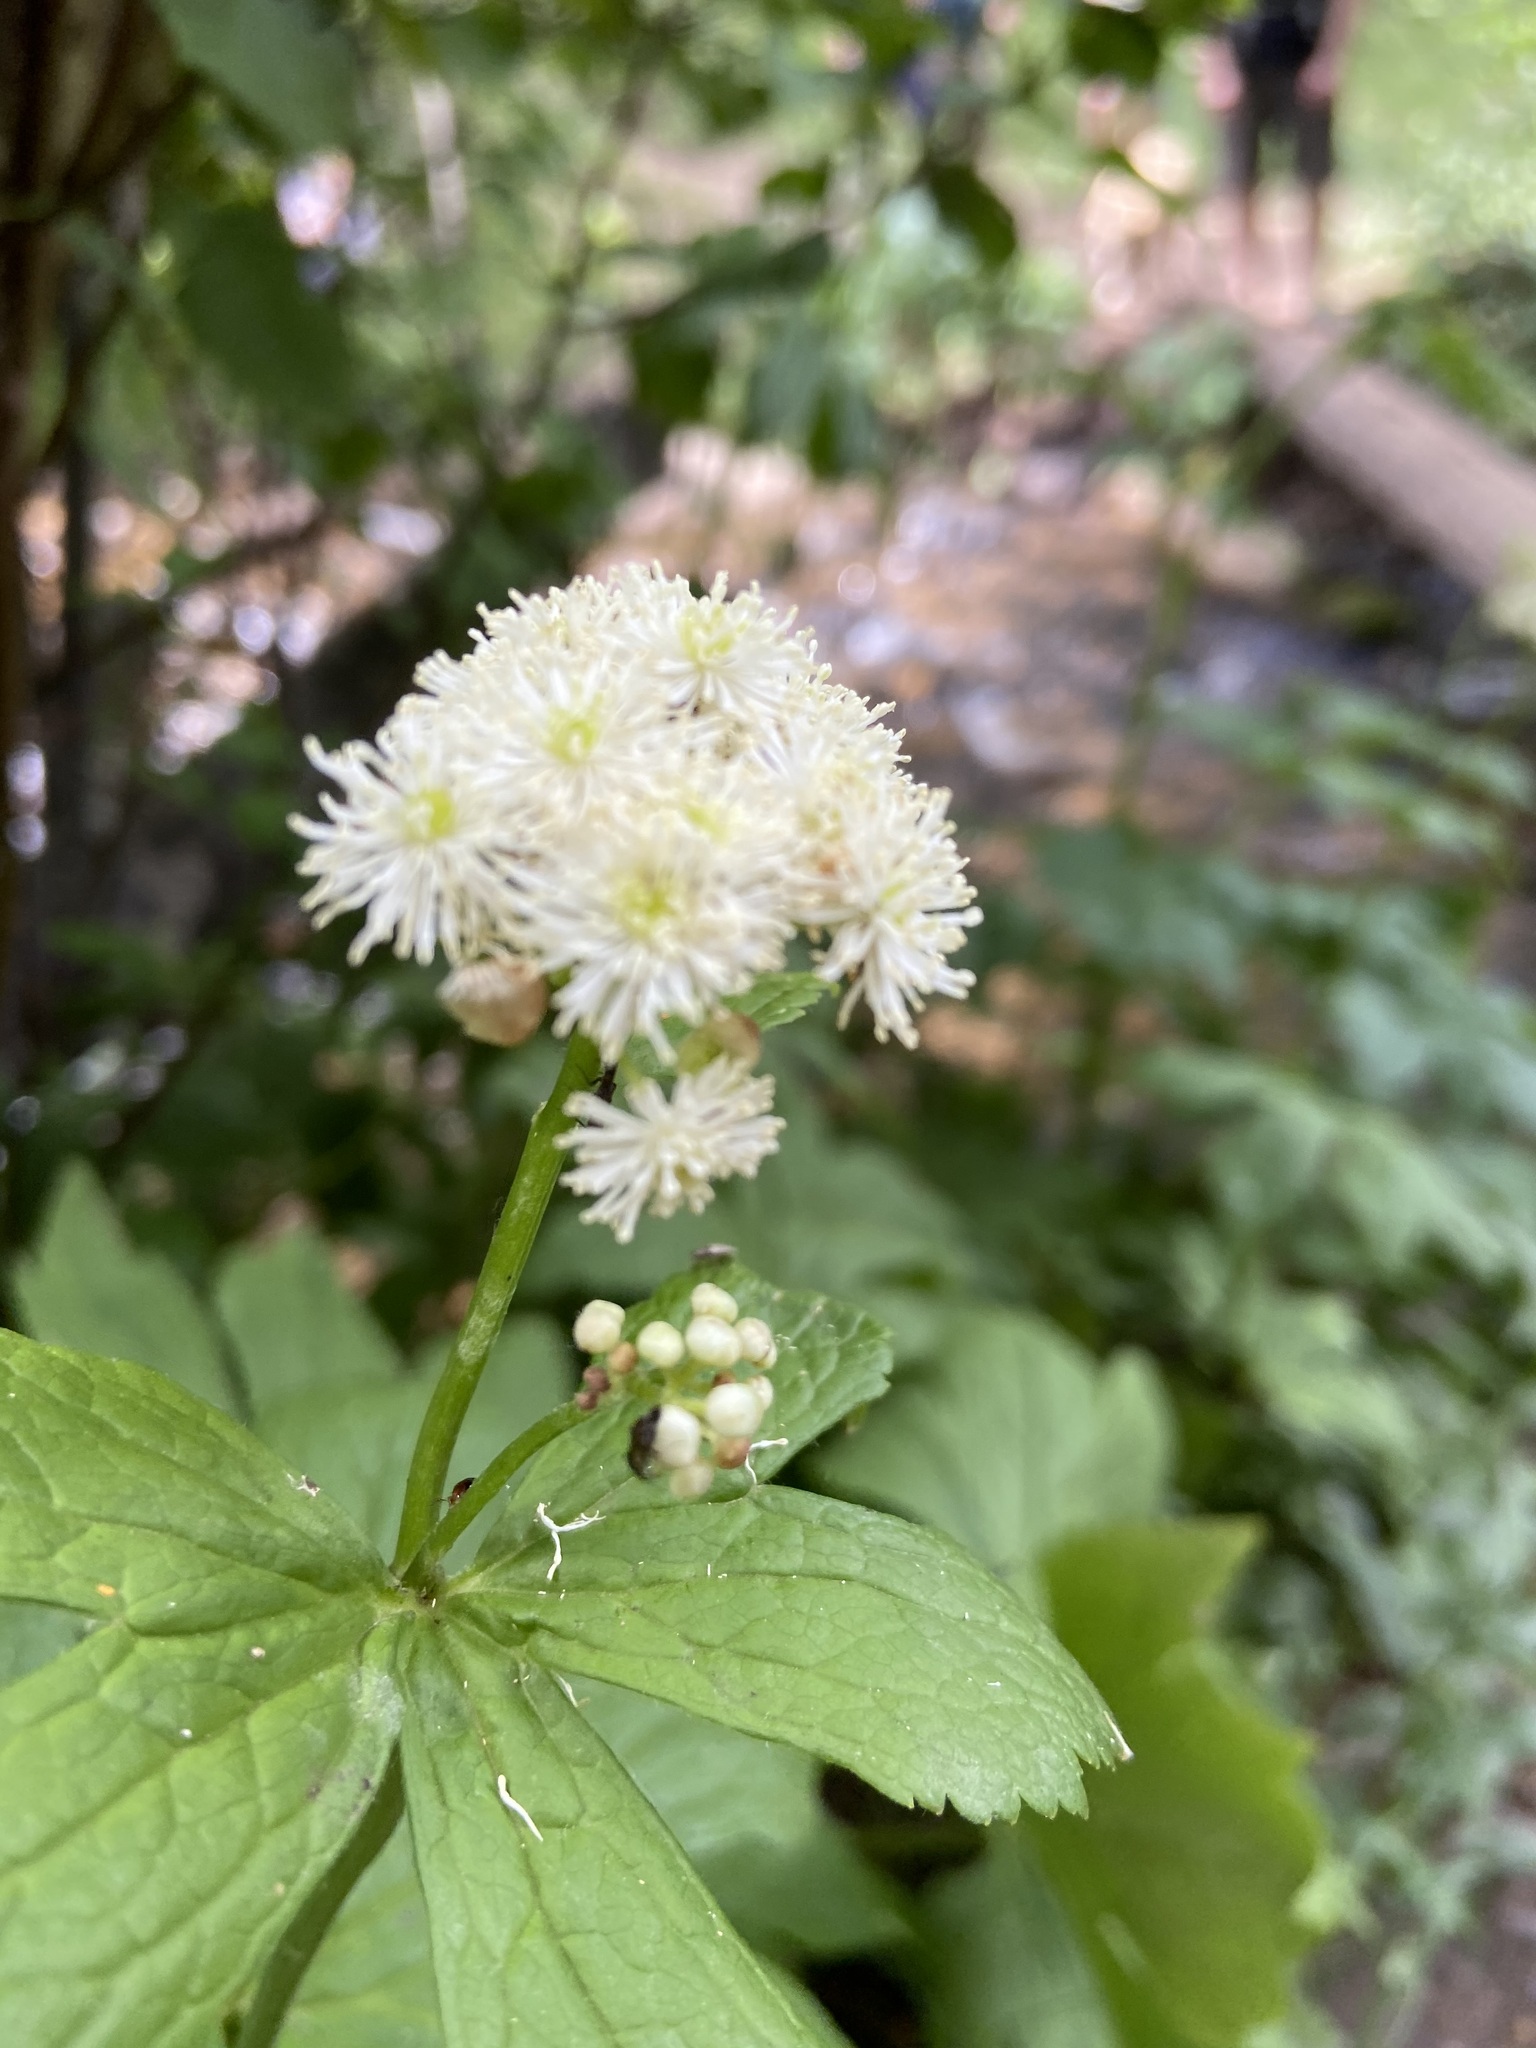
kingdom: Plantae
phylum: Tracheophyta
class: Magnoliopsida
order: Ranunculales
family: Ranunculaceae
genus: Trautvetteria
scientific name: Trautvetteria carolinensis
